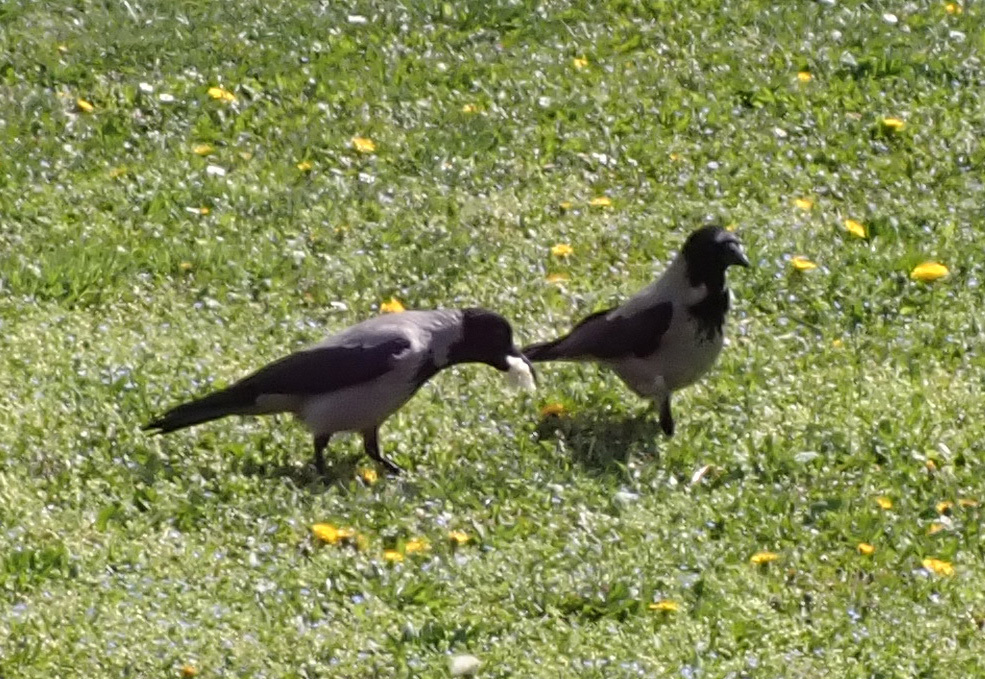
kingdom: Animalia
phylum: Chordata
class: Aves
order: Passeriformes
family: Corvidae
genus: Corvus
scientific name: Corvus cornix
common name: Hooded crow
